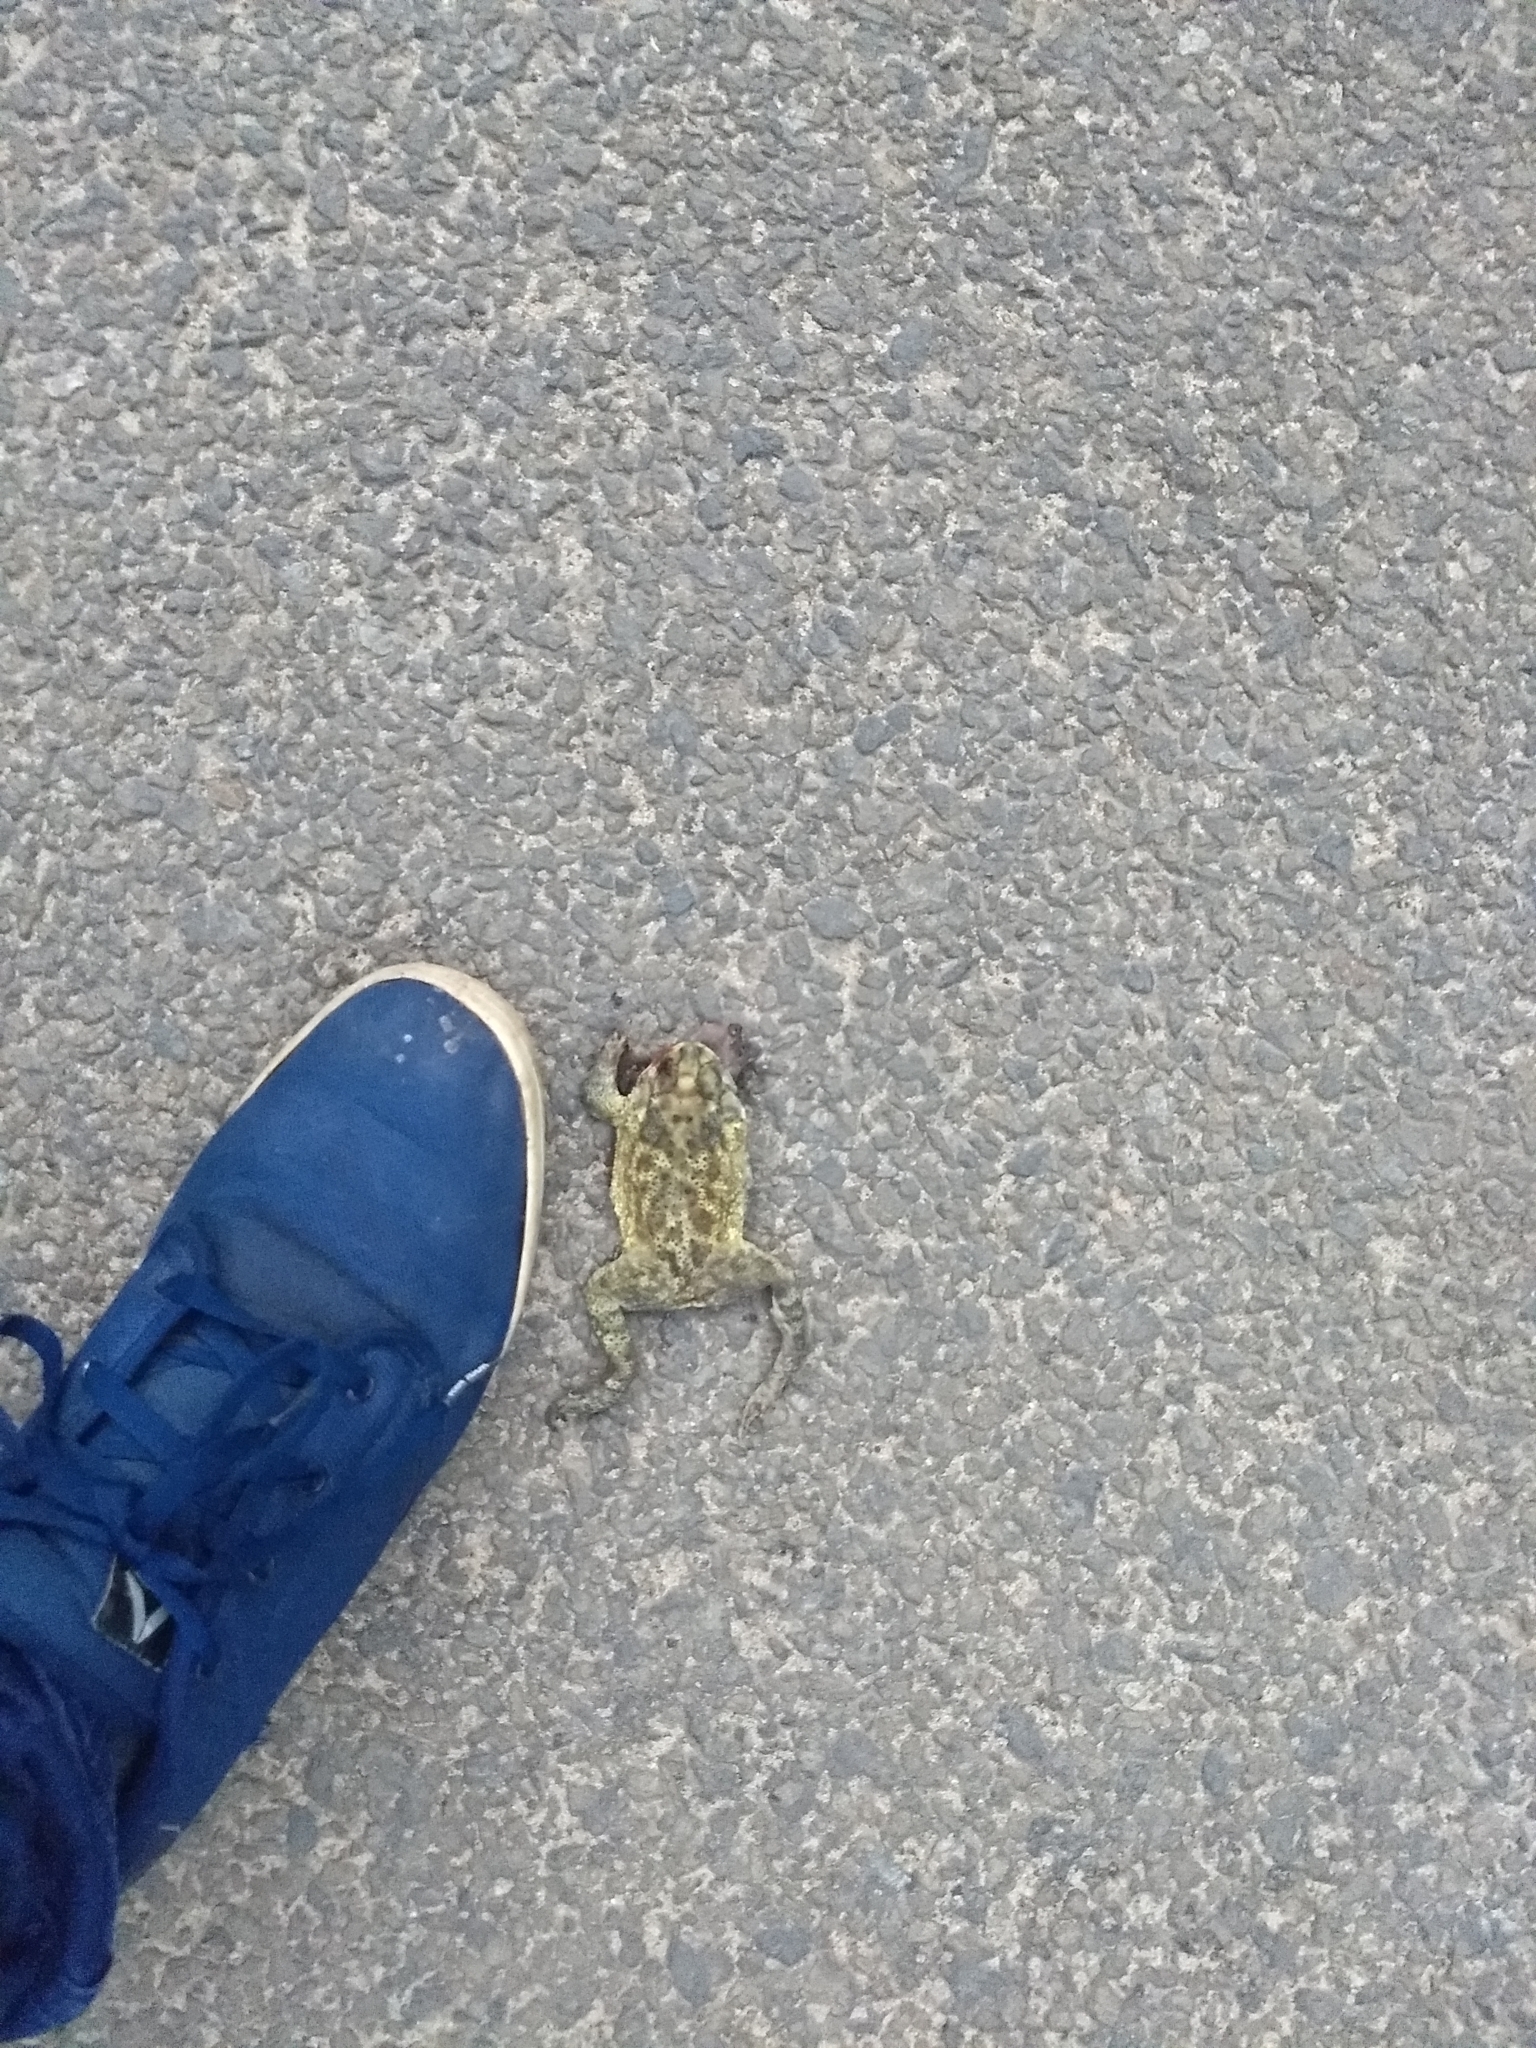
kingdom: Animalia
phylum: Chordata
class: Amphibia
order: Anura
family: Bufonidae
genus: Duttaphrynus
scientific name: Duttaphrynus melanostictus
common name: Common sunda toad
